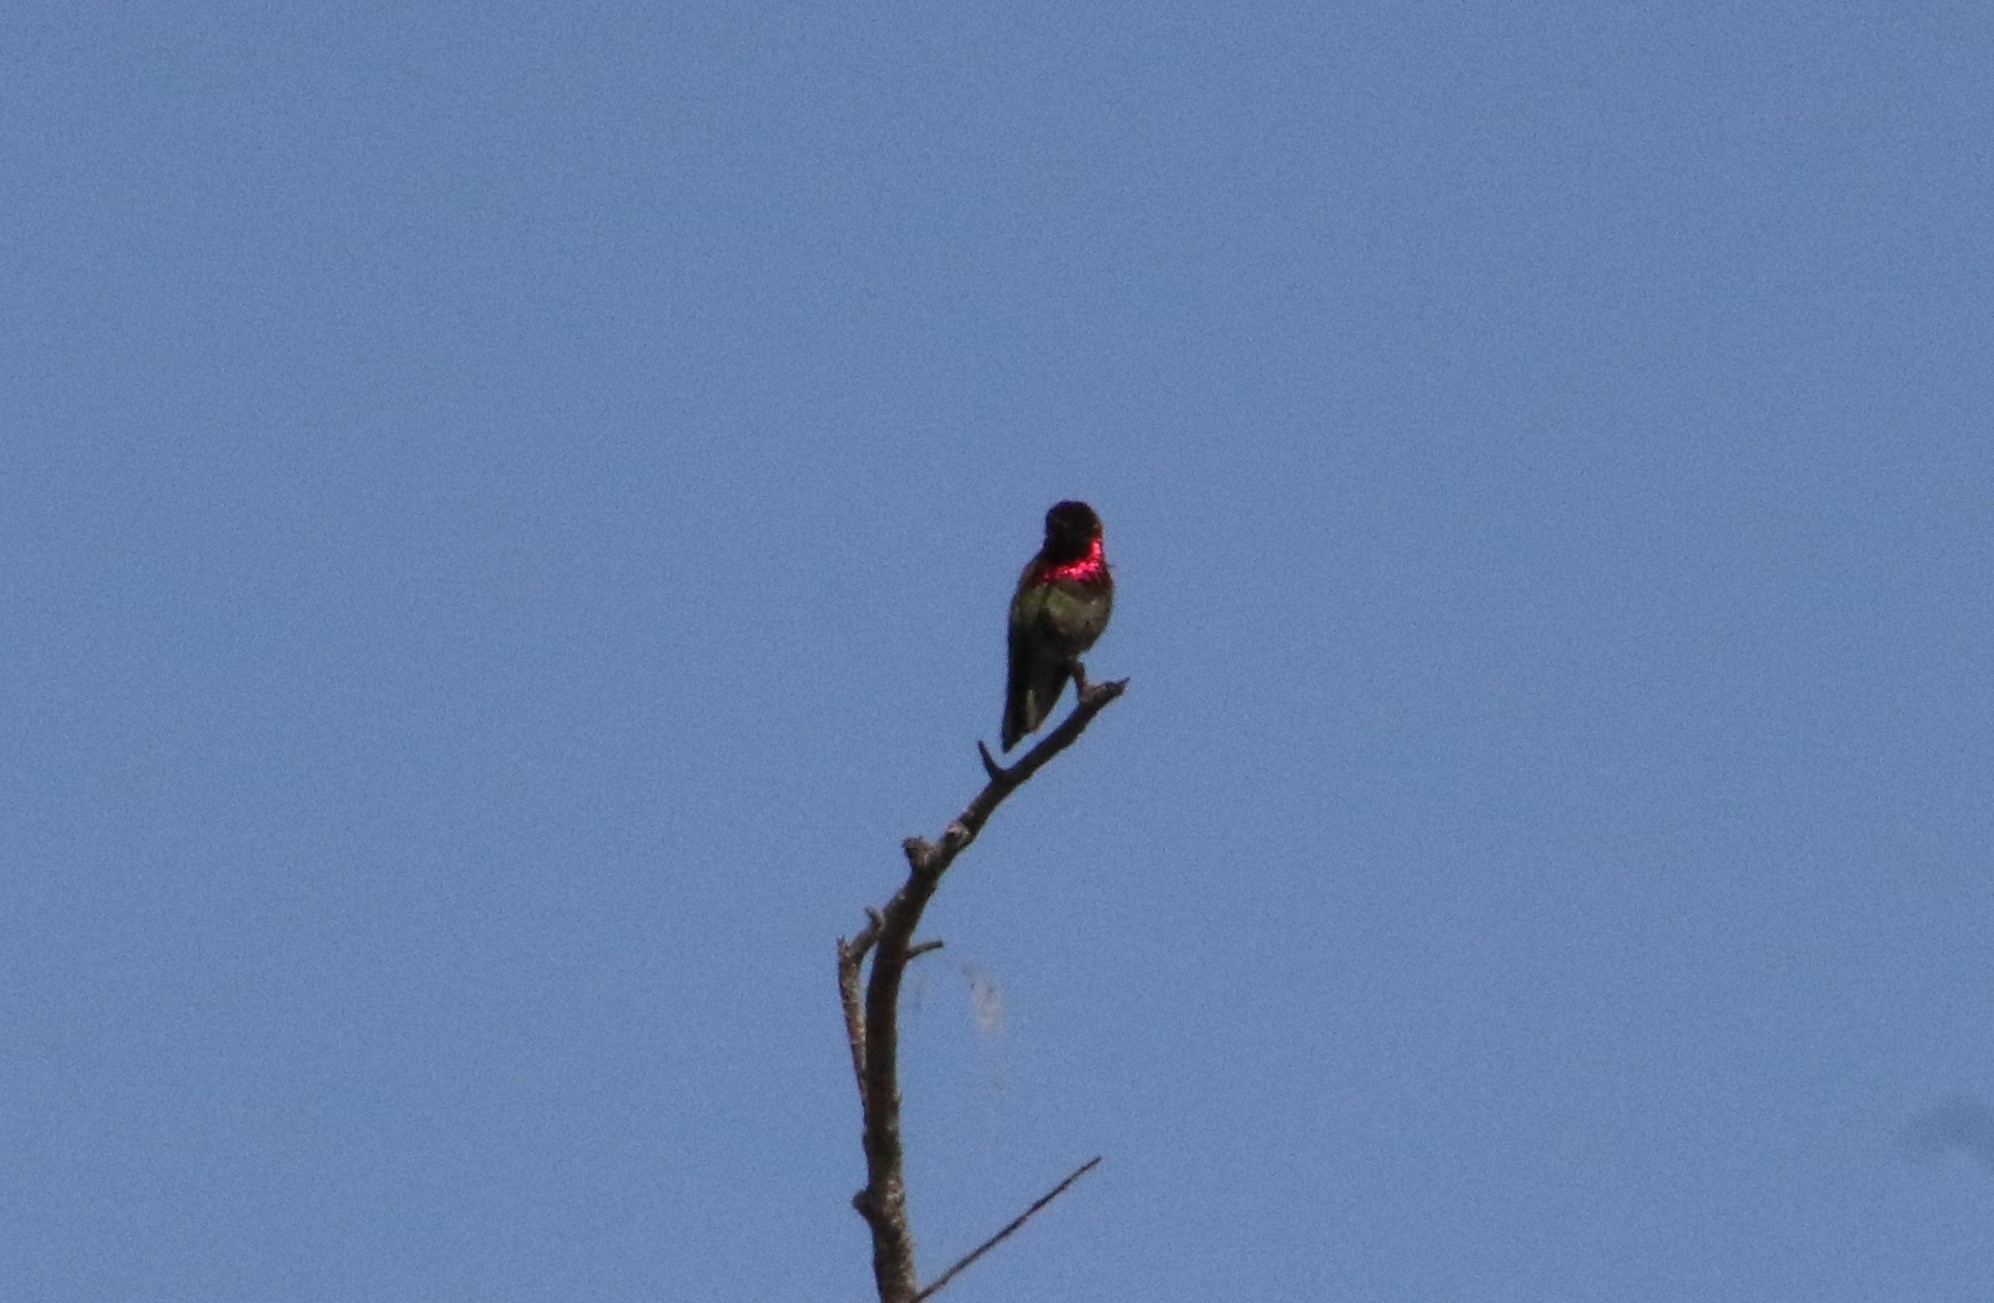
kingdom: Animalia
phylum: Chordata
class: Aves
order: Apodiformes
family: Trochilidae
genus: Calypte
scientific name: Calypte anna
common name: Anna's hummingbird
